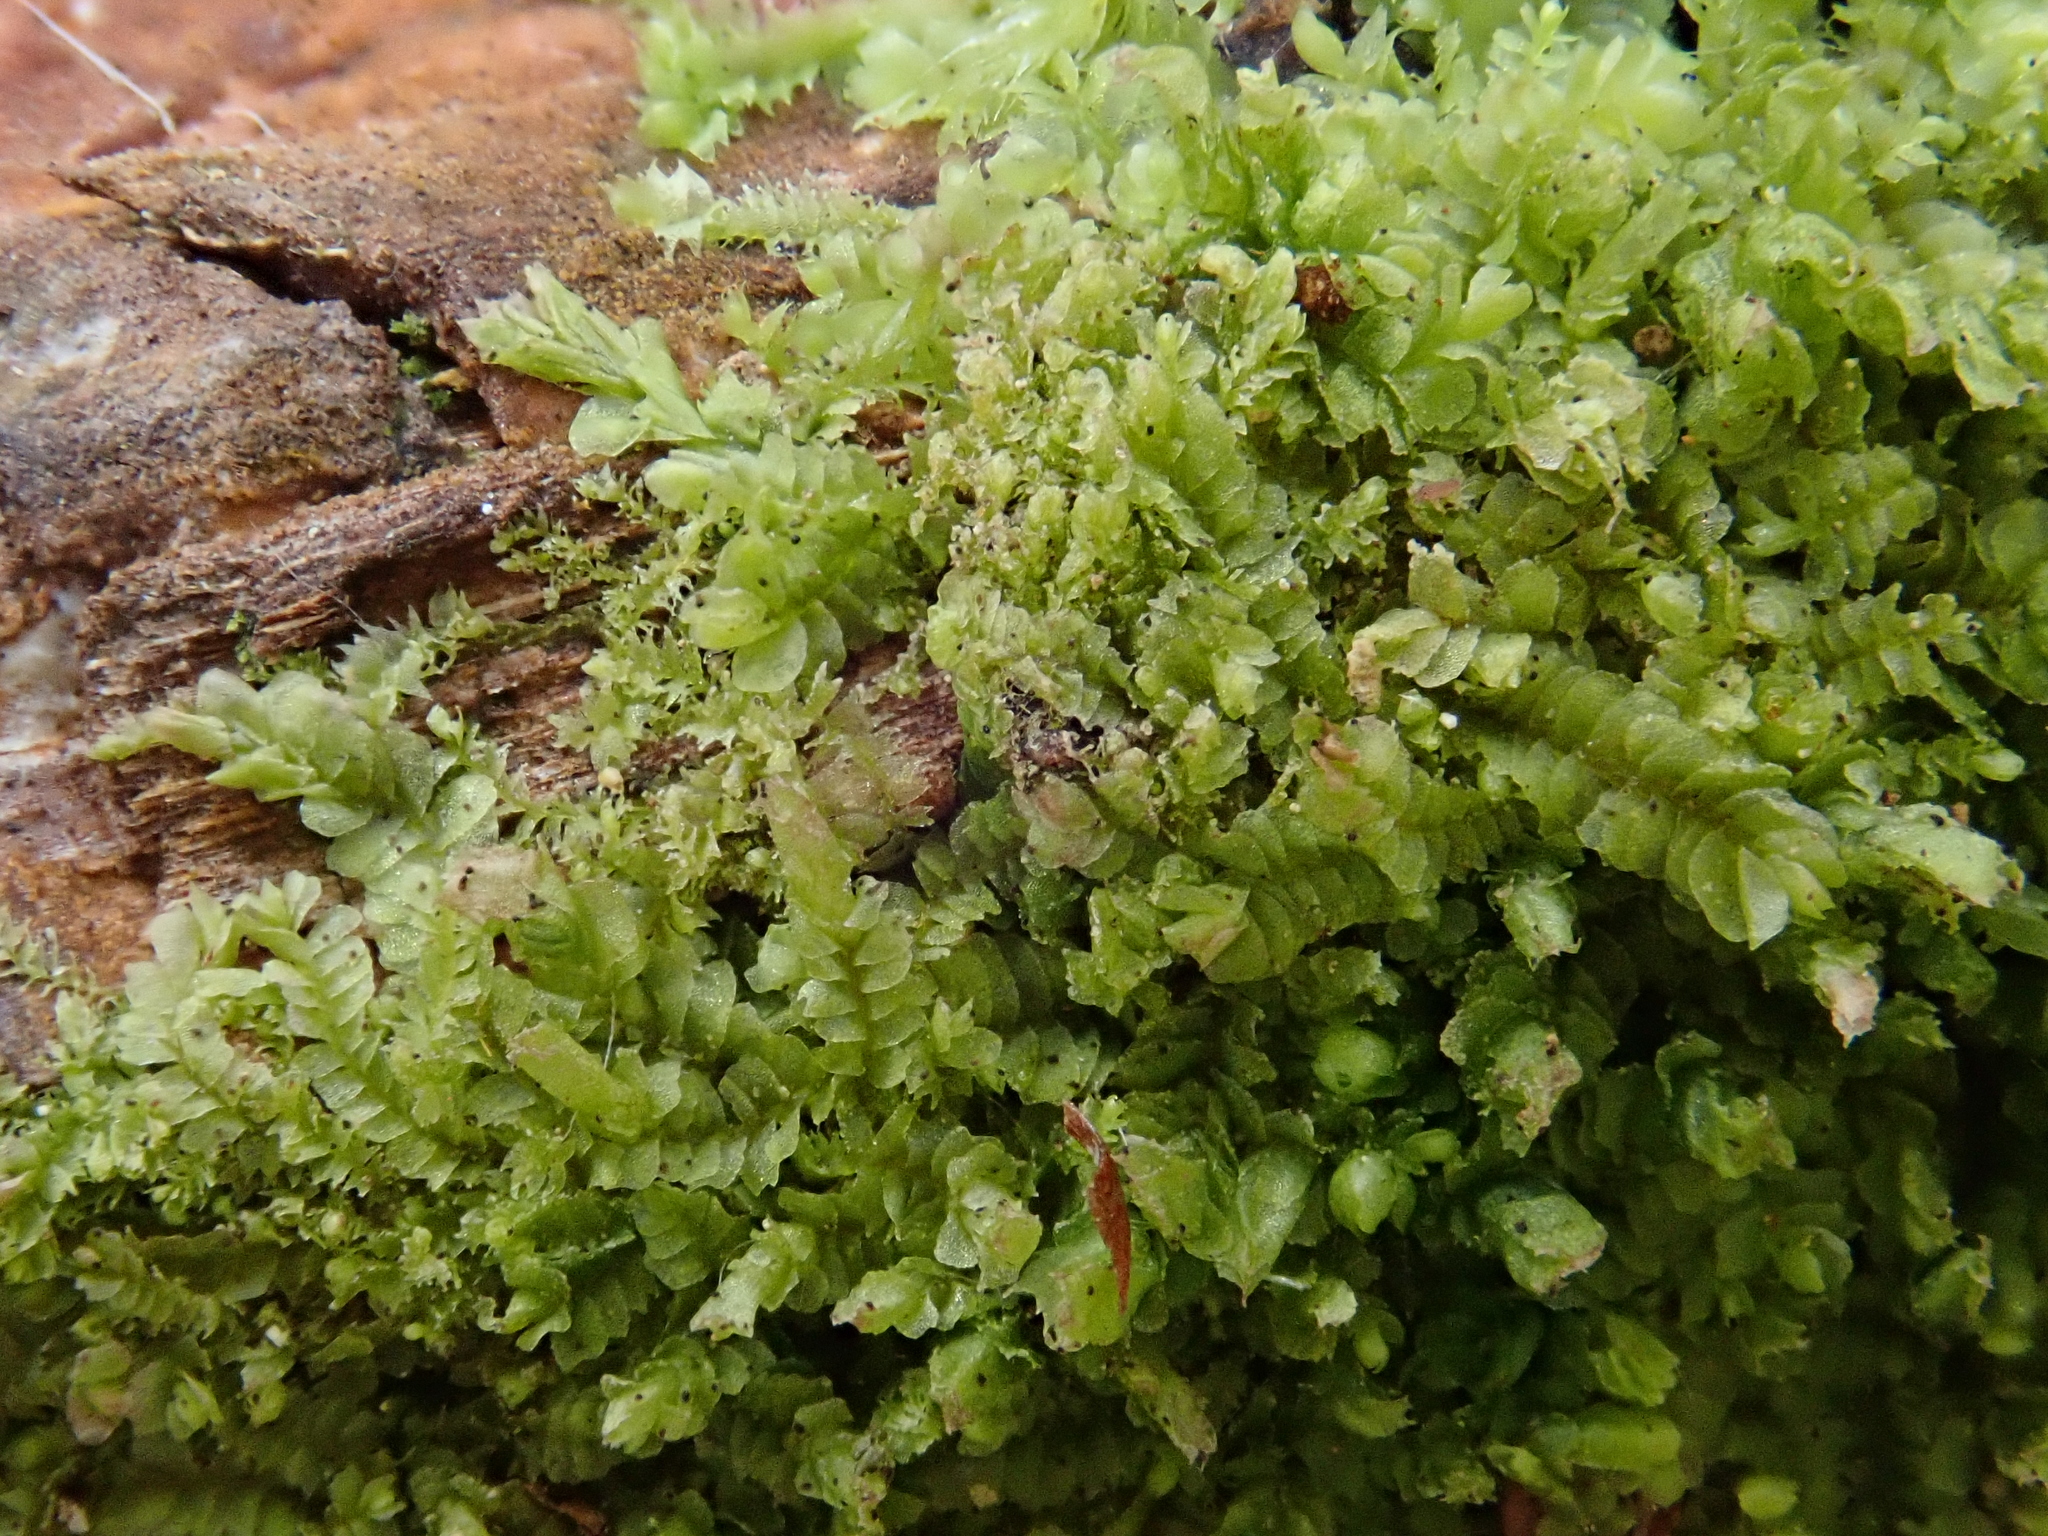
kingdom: Plantae
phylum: Marchantiophyta
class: Jungermanniopsida
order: Jungermanniales
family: Lophocoleaceae
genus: Lophocolea
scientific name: Lophocolea heterophylla
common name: Variable-leaved crestwort
